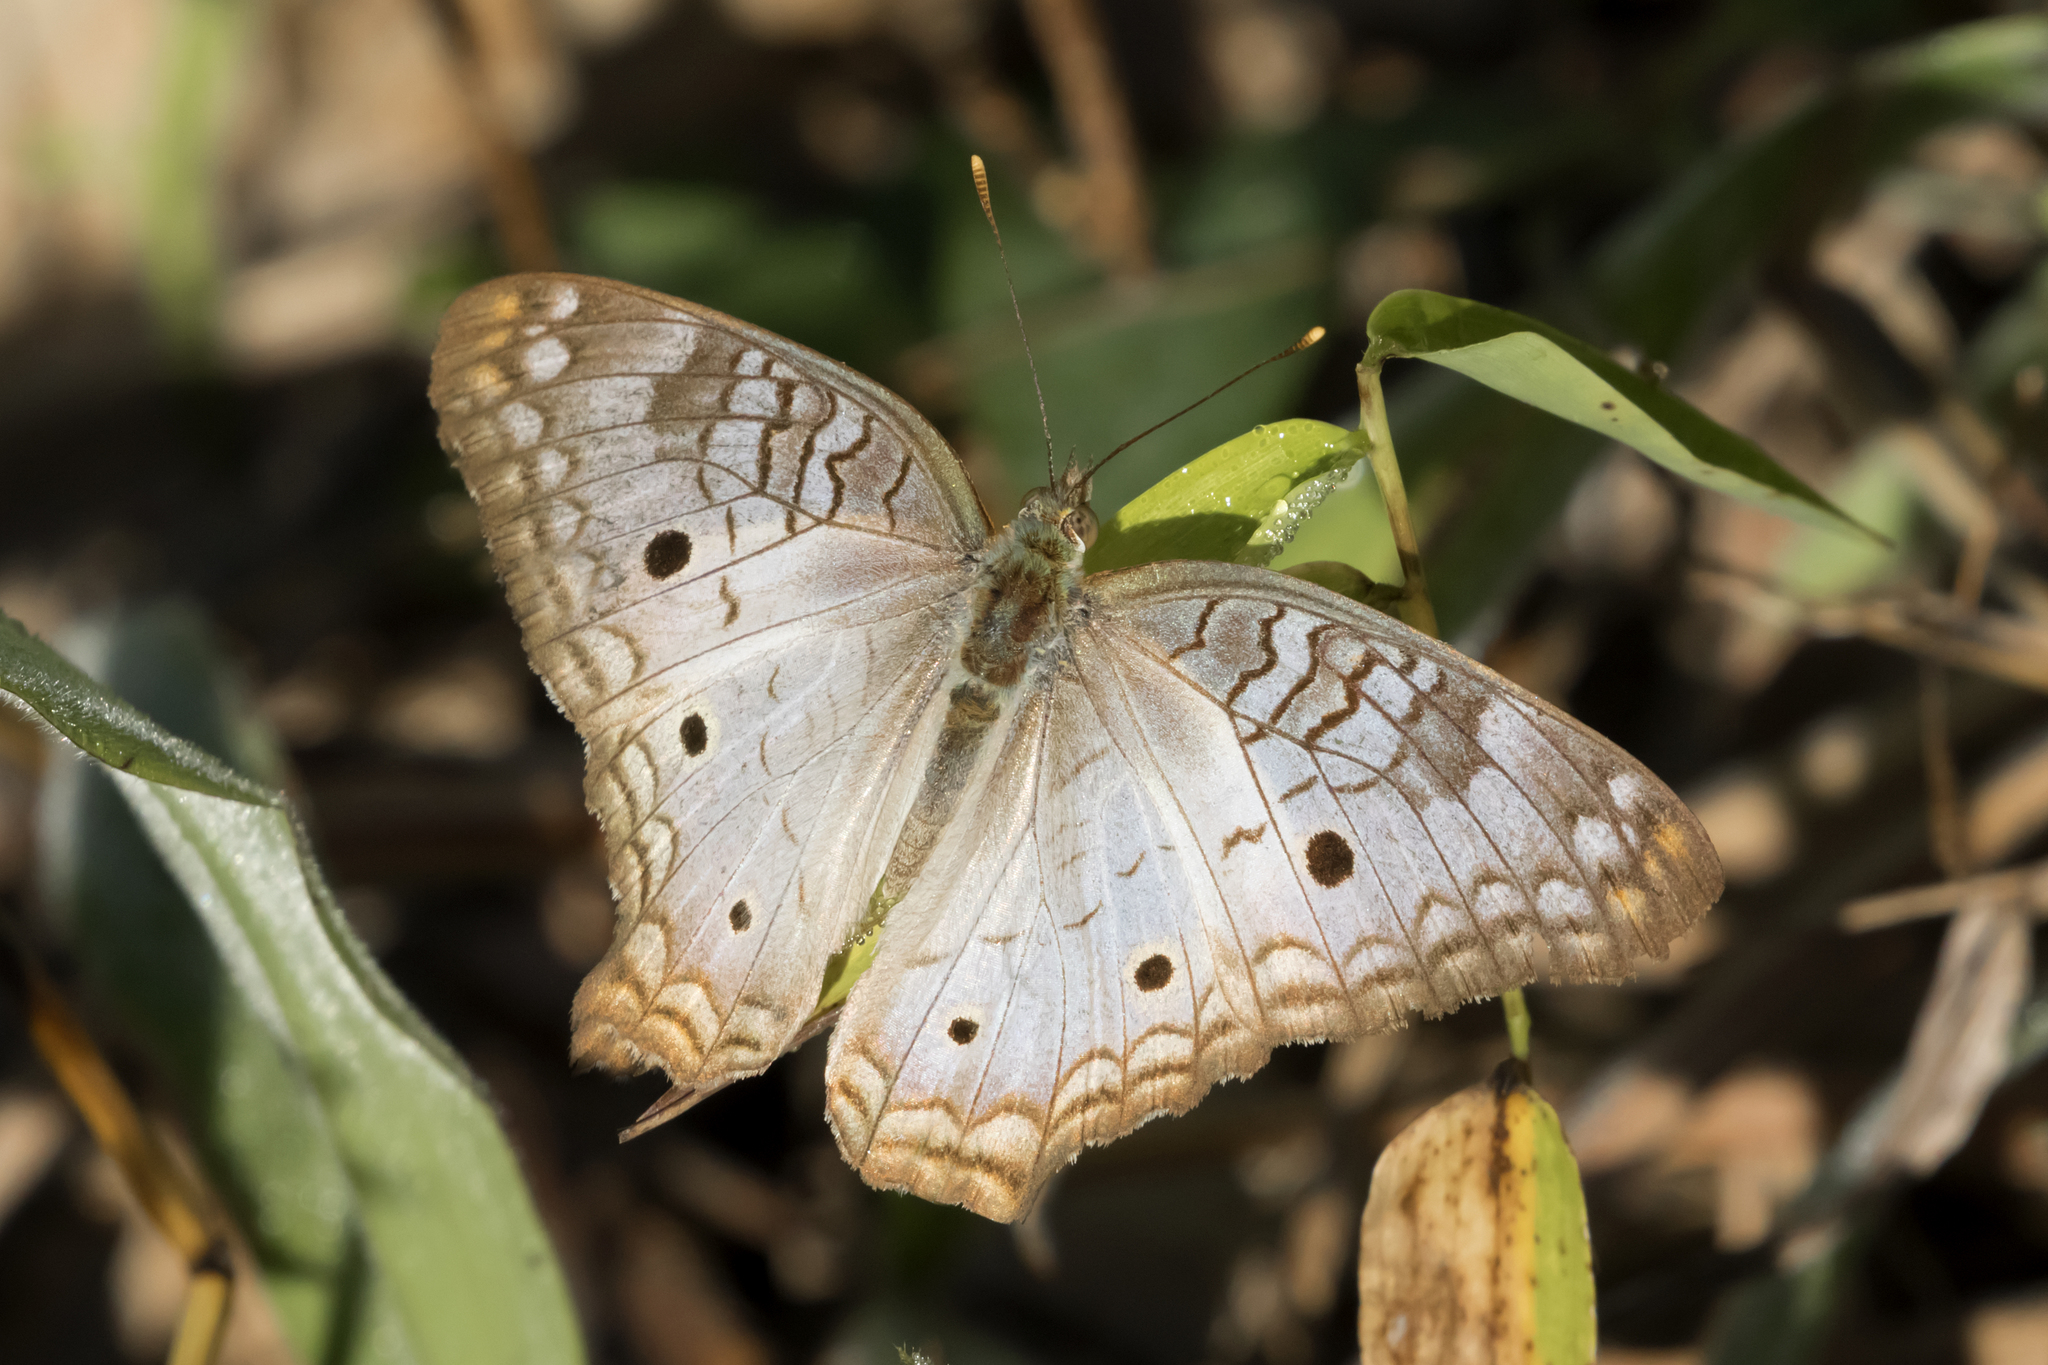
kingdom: Animalia
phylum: Arthropoda
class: Insecta
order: Lepidoptera
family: Nymphalidae
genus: Anartia
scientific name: Anartia jatrophae
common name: White peacock
